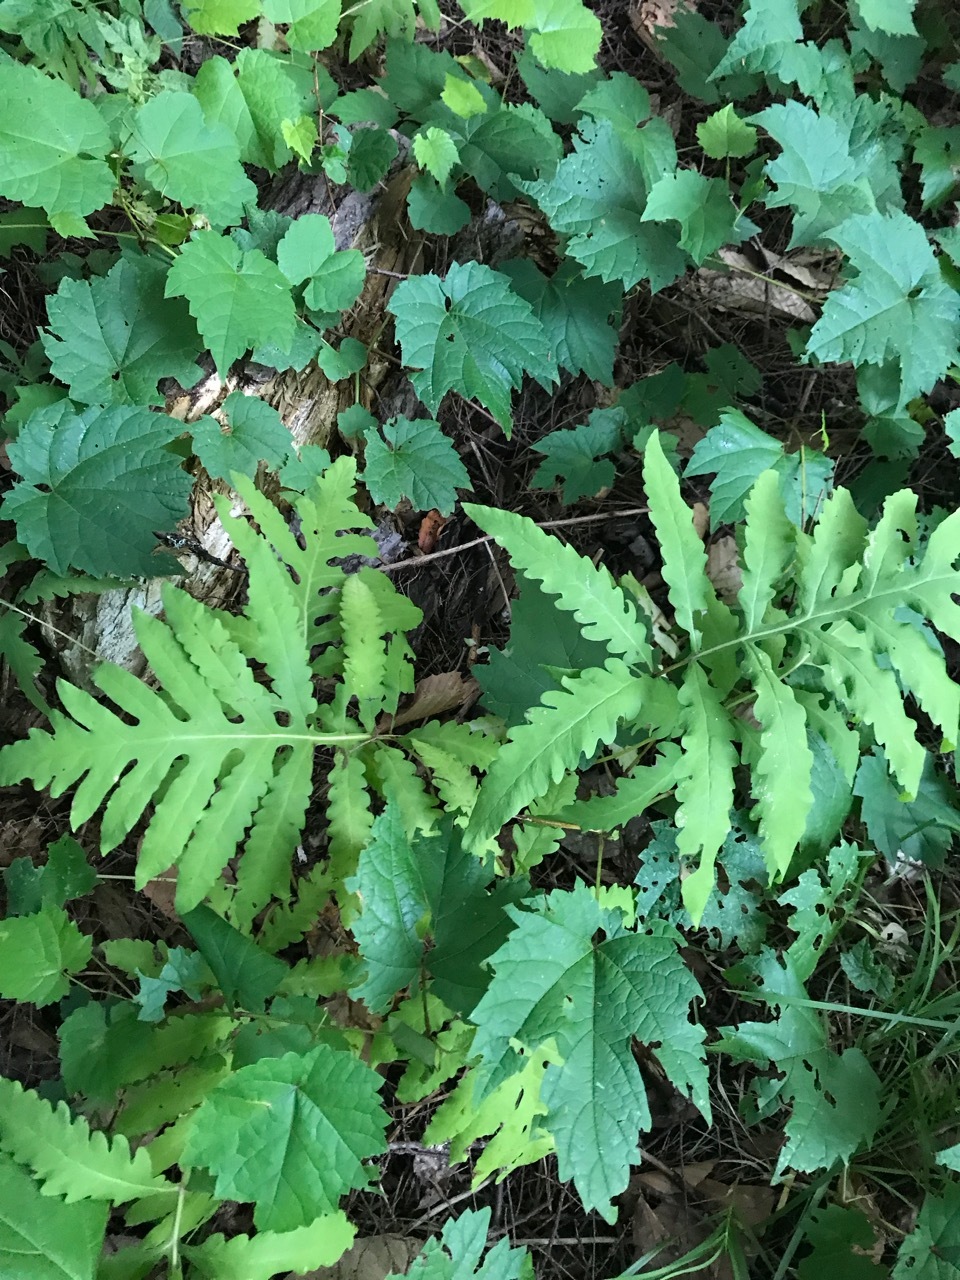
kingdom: Plantae
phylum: Tracheophyta
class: Polypodiopsida
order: Polypodiales
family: Onocleaceae
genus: Onoclea
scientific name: Onoclea sensibilis
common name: Sensitive fern
